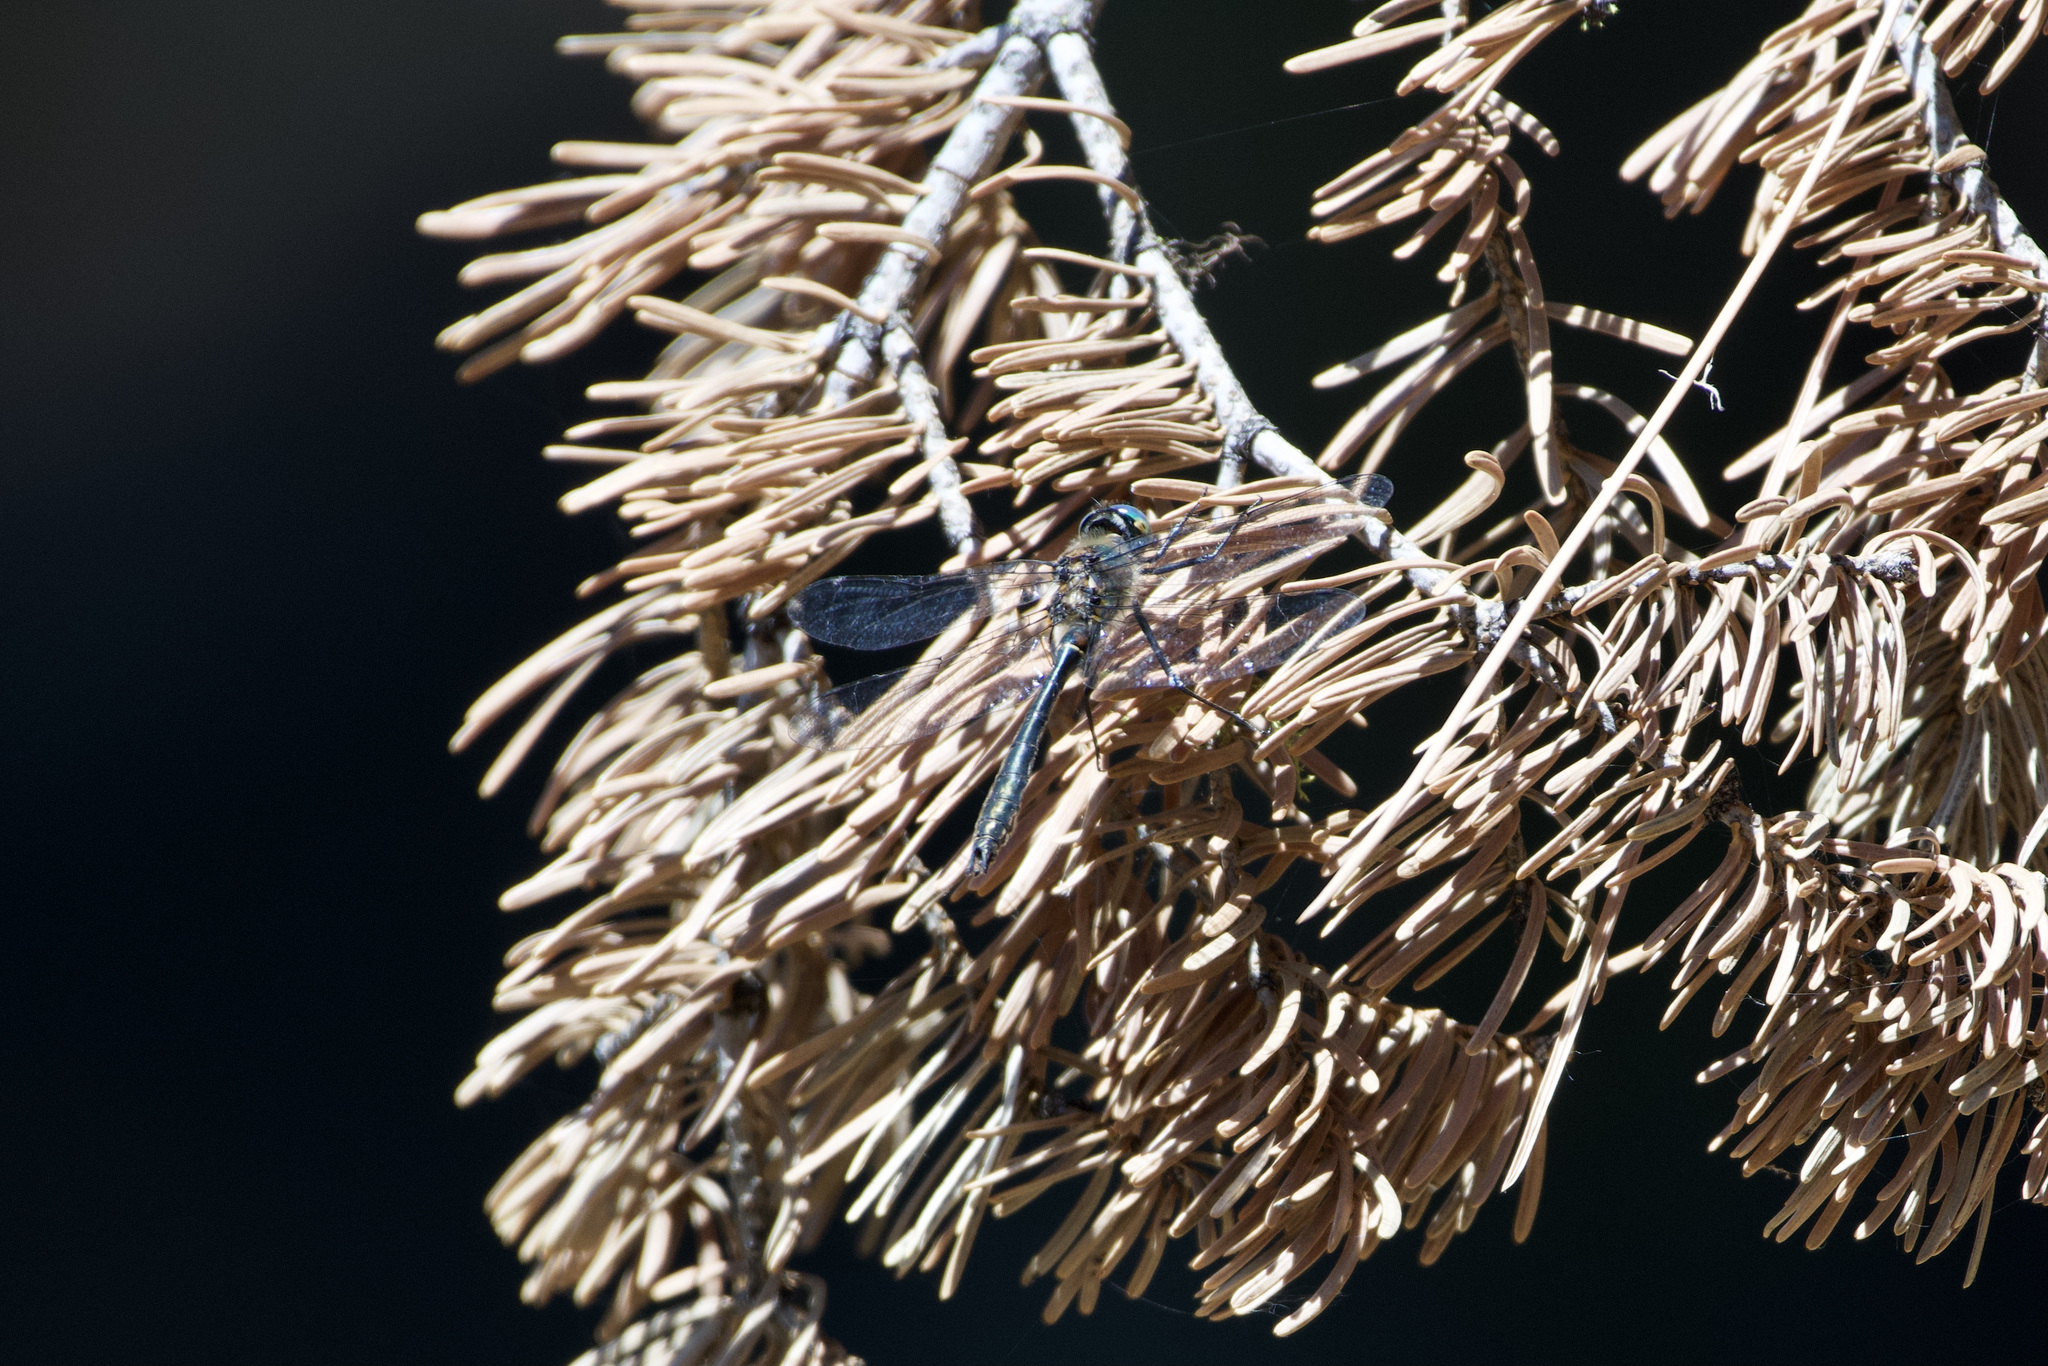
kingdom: Animalia
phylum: Arthropoda
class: Insecta
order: Odonata
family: Corduliidae
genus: Cordulia
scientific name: Cordulia shurtleffii
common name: American emerald
